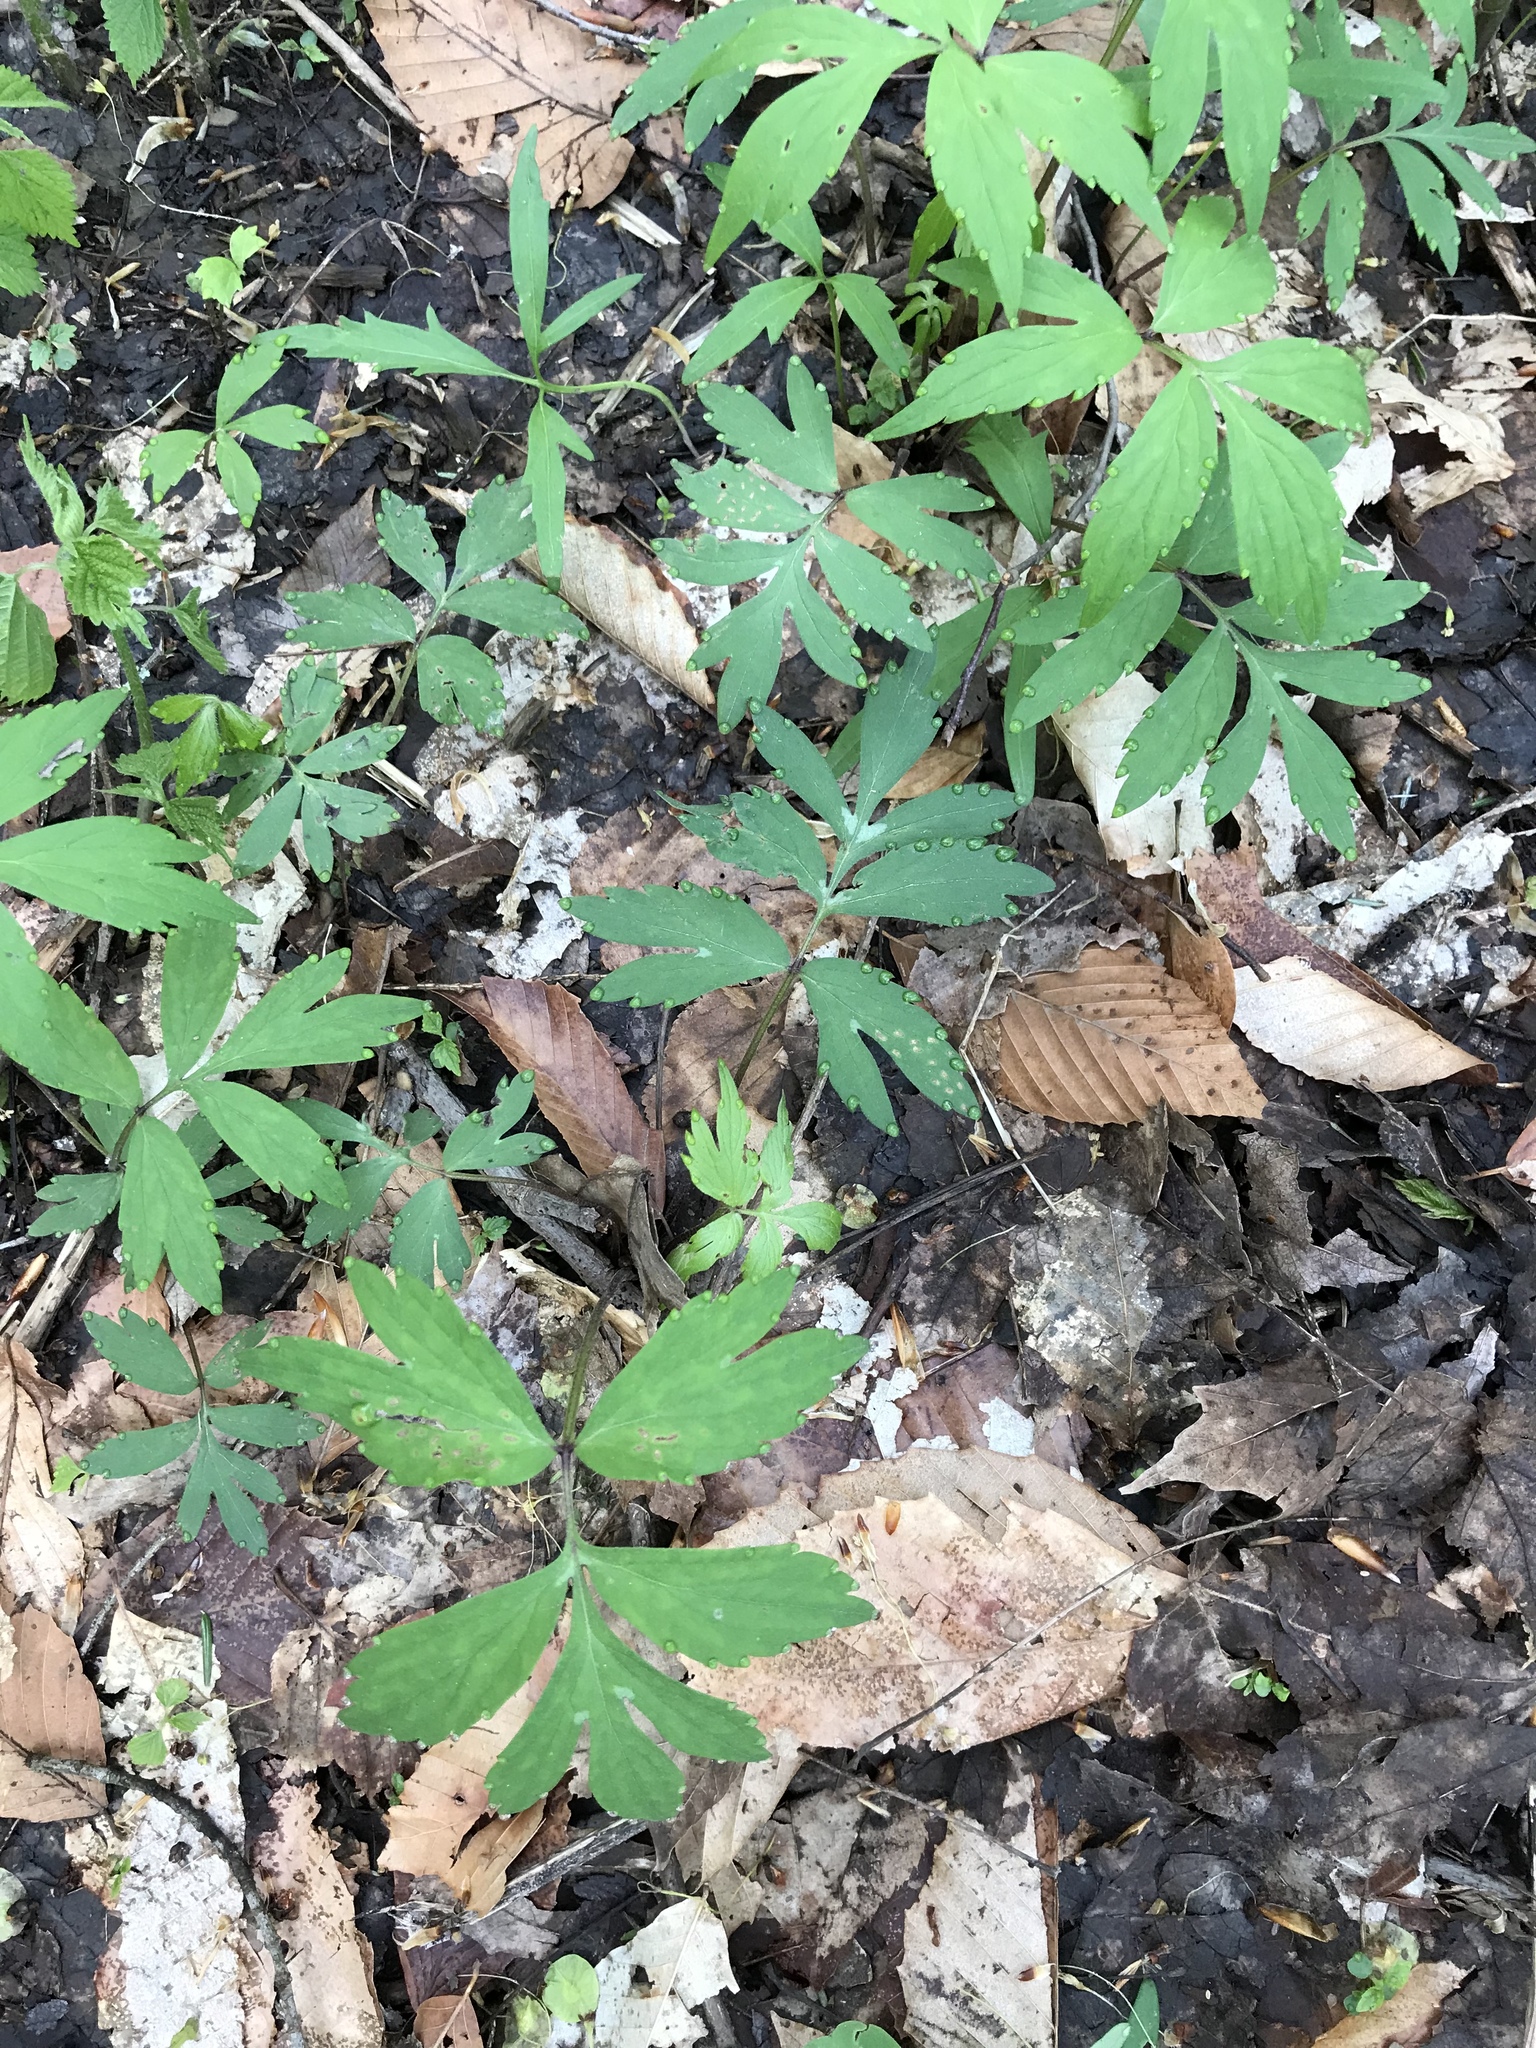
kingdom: Plantae
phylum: Tracheophyta
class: Magnoliopsida
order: Boraginales
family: Hydrophyllaceae
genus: Hydrophyllum
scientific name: Hydrophyllum virginianum
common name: Virginia waterleaf
